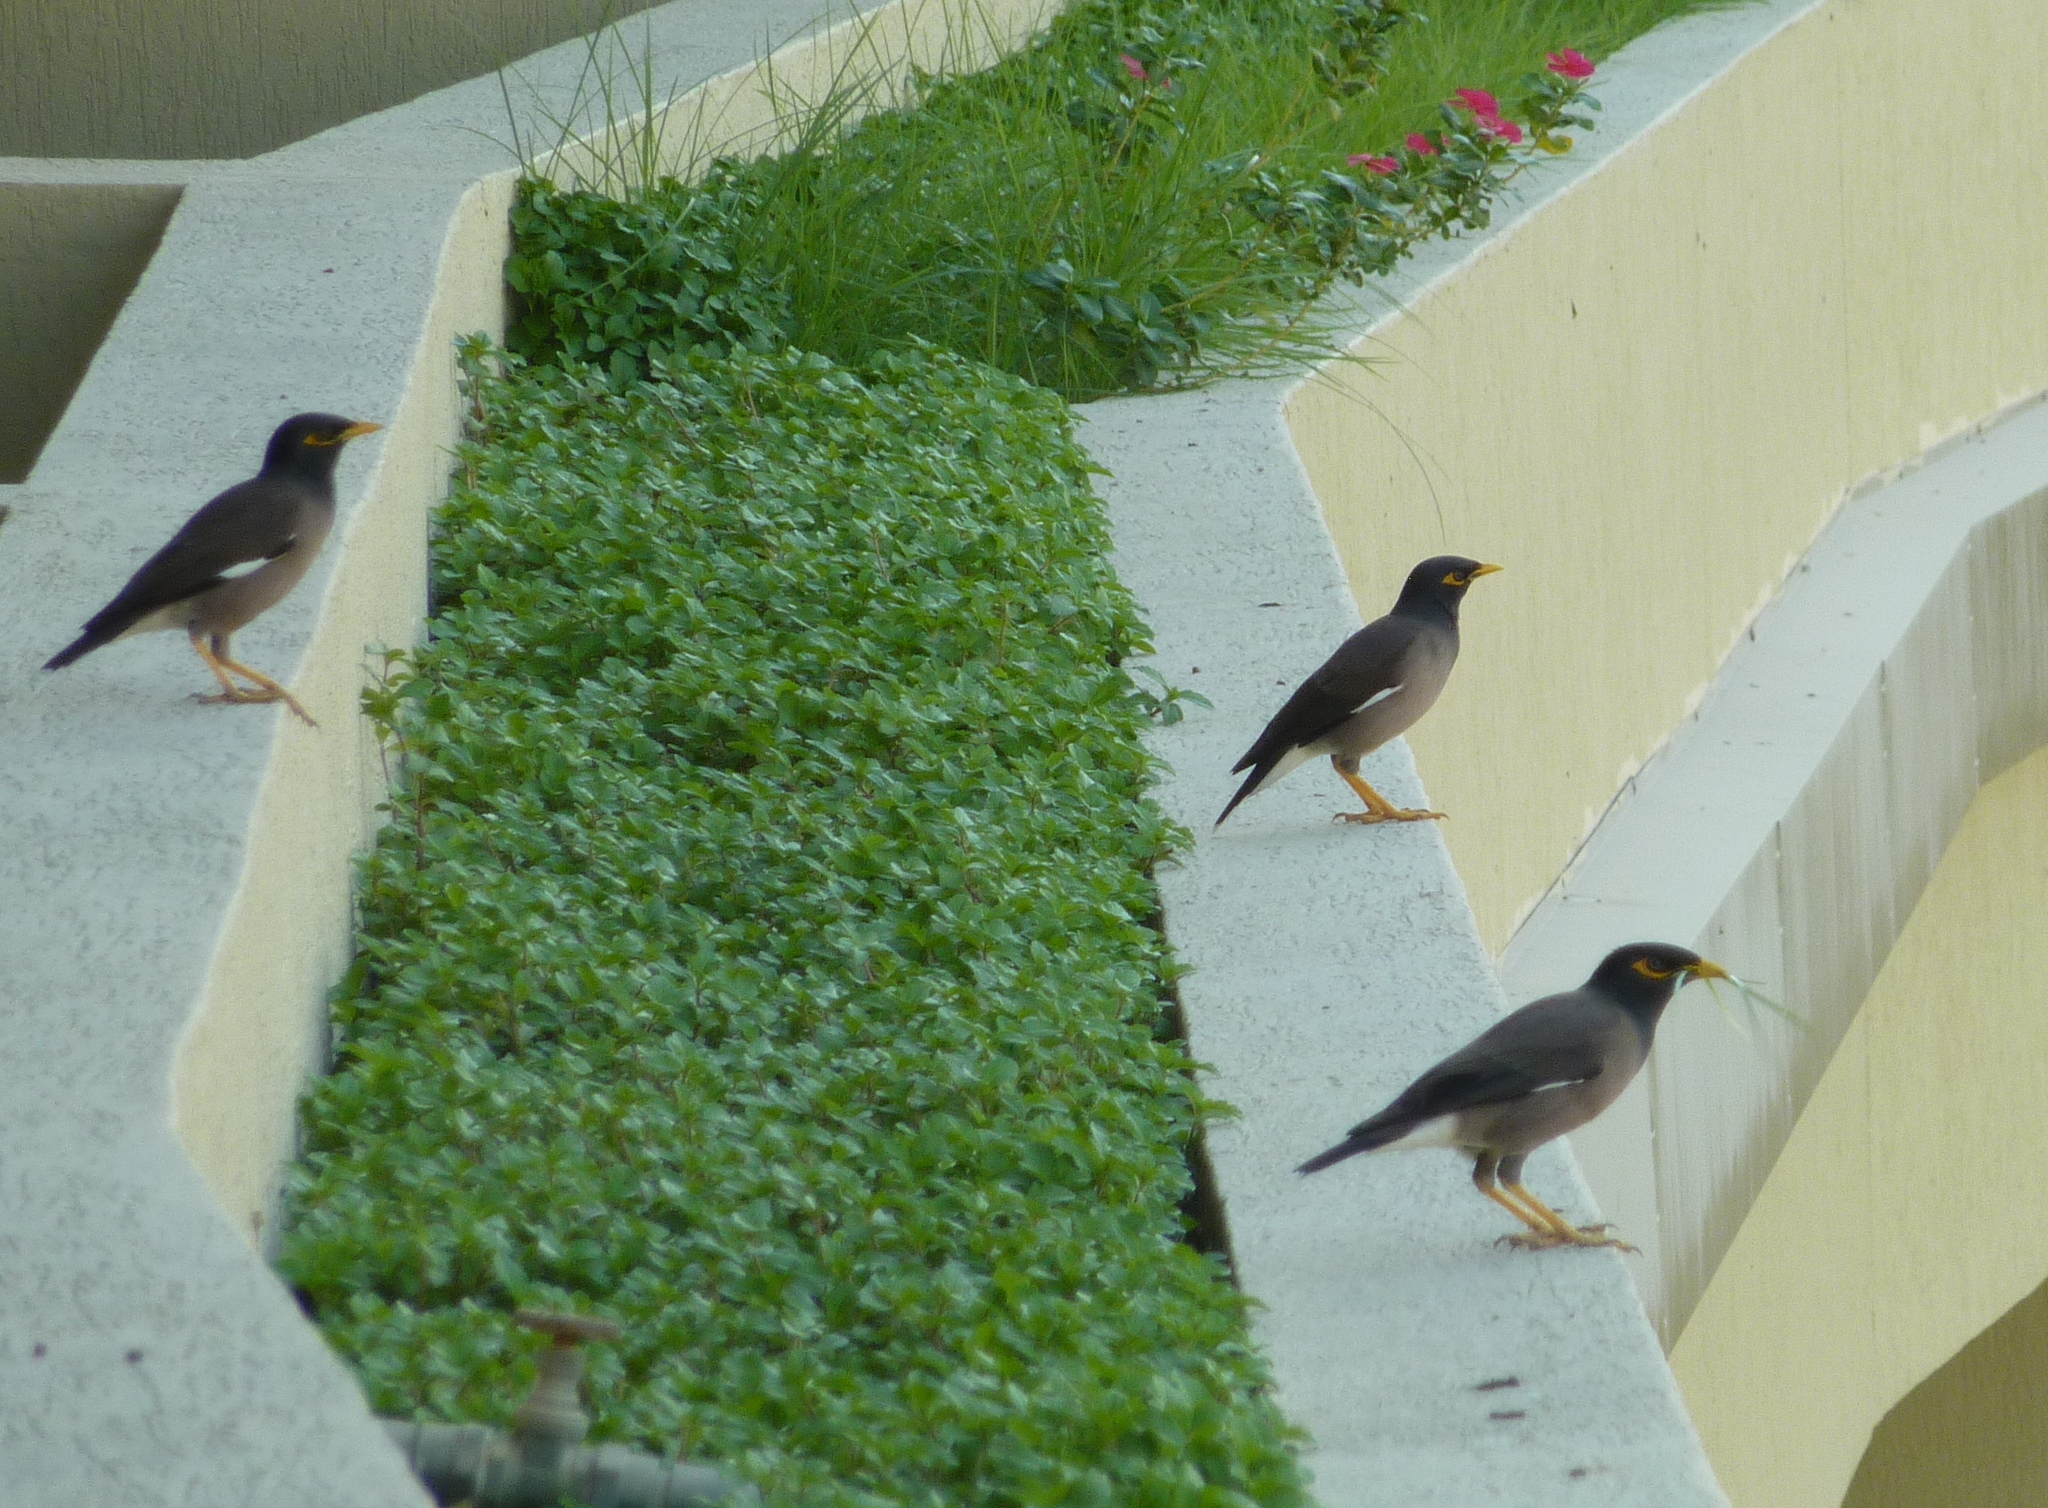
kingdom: Animalia
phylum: Chordata
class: Aves
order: Passeriformes
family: Sturnidae
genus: Acridotheres
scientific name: Acridotheres tristis
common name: Common myna
